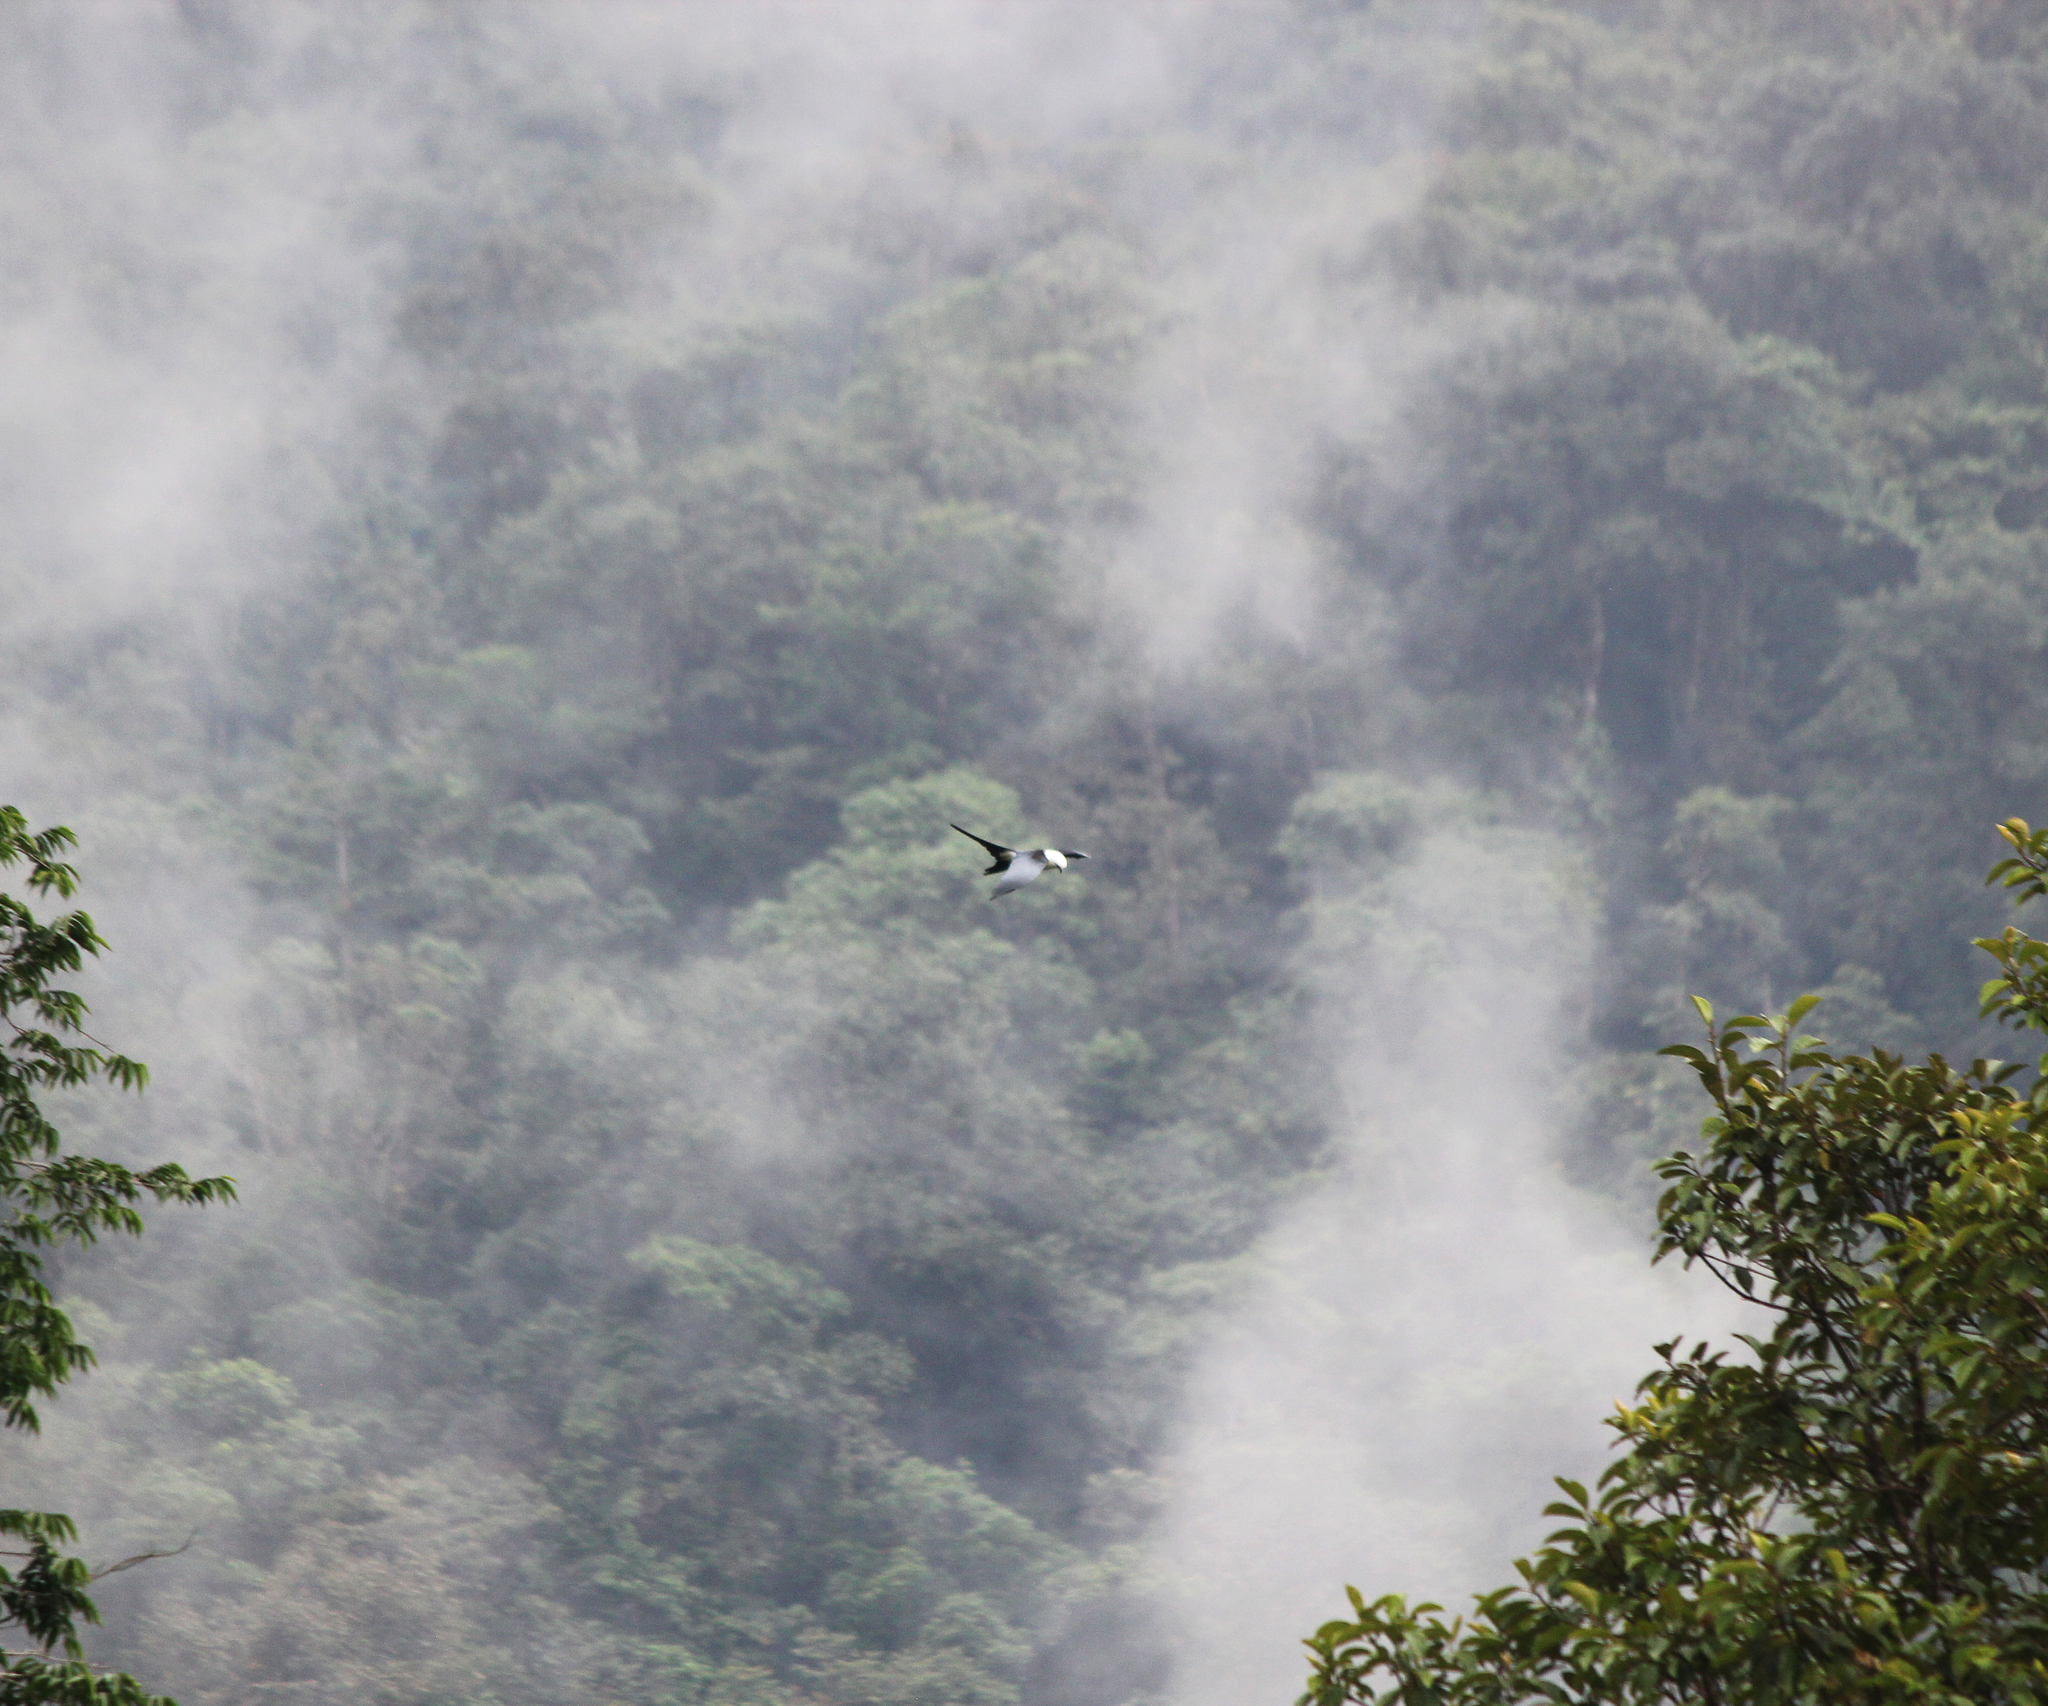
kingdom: Animalia
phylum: Chordata
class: Aves
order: Accipitriformes
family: Accipitridae
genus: Elanoides
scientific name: Elanoides forficatus
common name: Swallow-tailed kite
